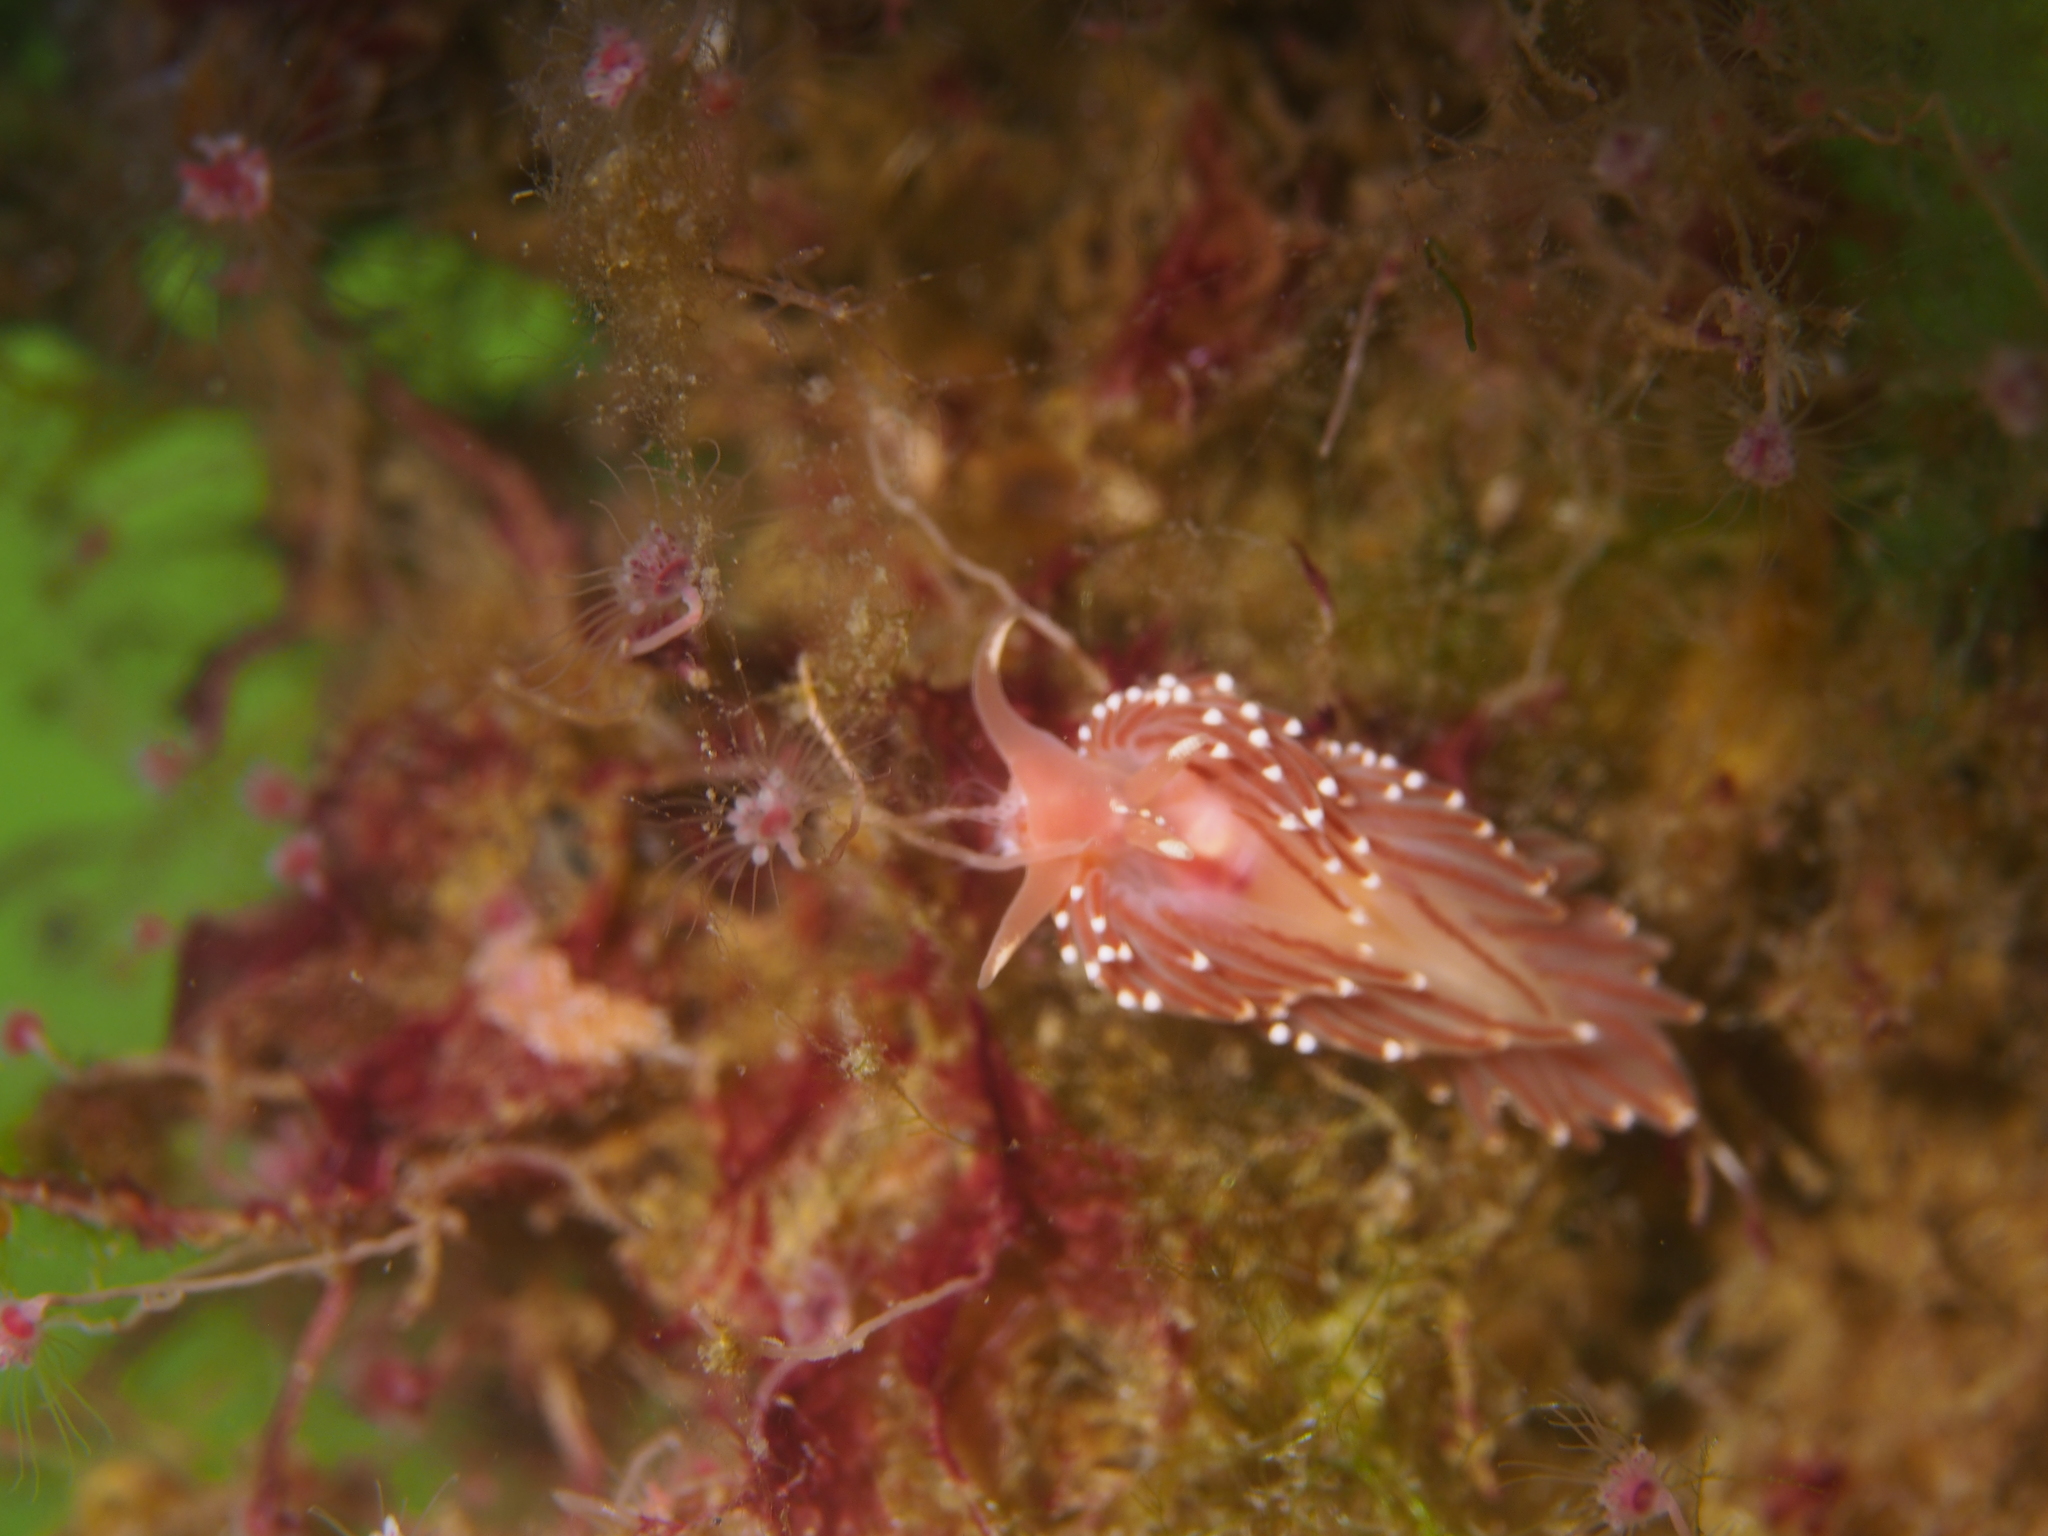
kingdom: Animalia
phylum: Mollusca
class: Gastropoda
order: Nudibranchia
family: Facelinidae
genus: Facelina
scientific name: Facelina bostoniensis
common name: Boston facelina
